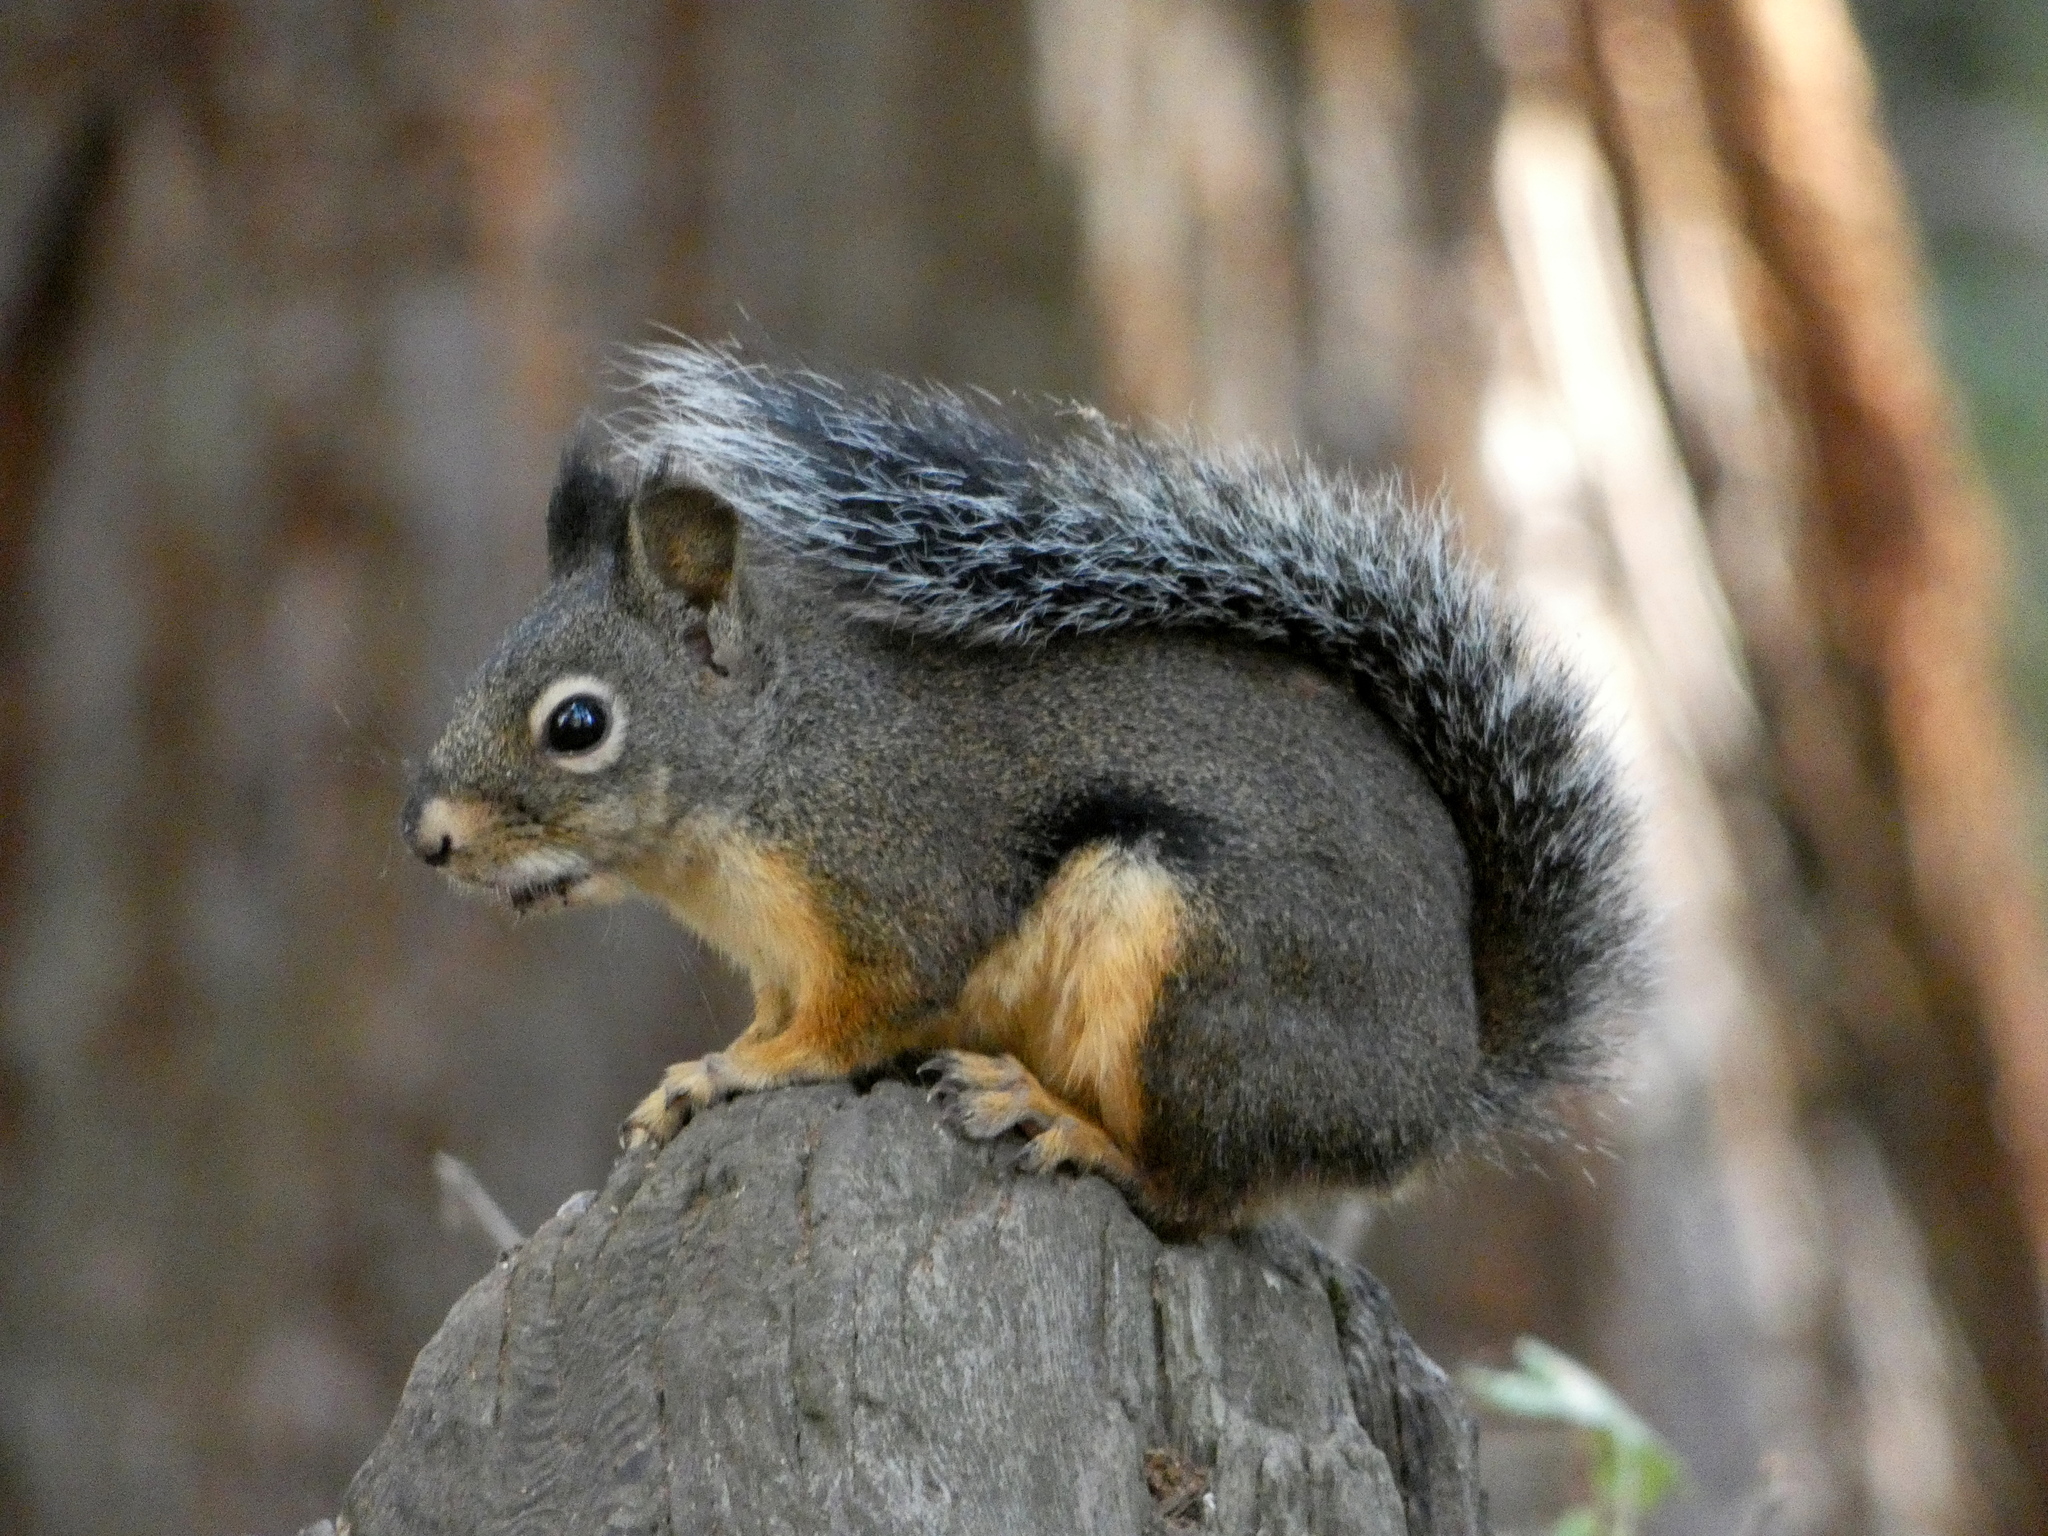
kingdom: Animalia
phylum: Chordata
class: Mammalia
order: Rodentia
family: Sciuridae
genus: Tamiasciurus
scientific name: Tamiasciurus douglasii
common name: Douglas's squirrel
